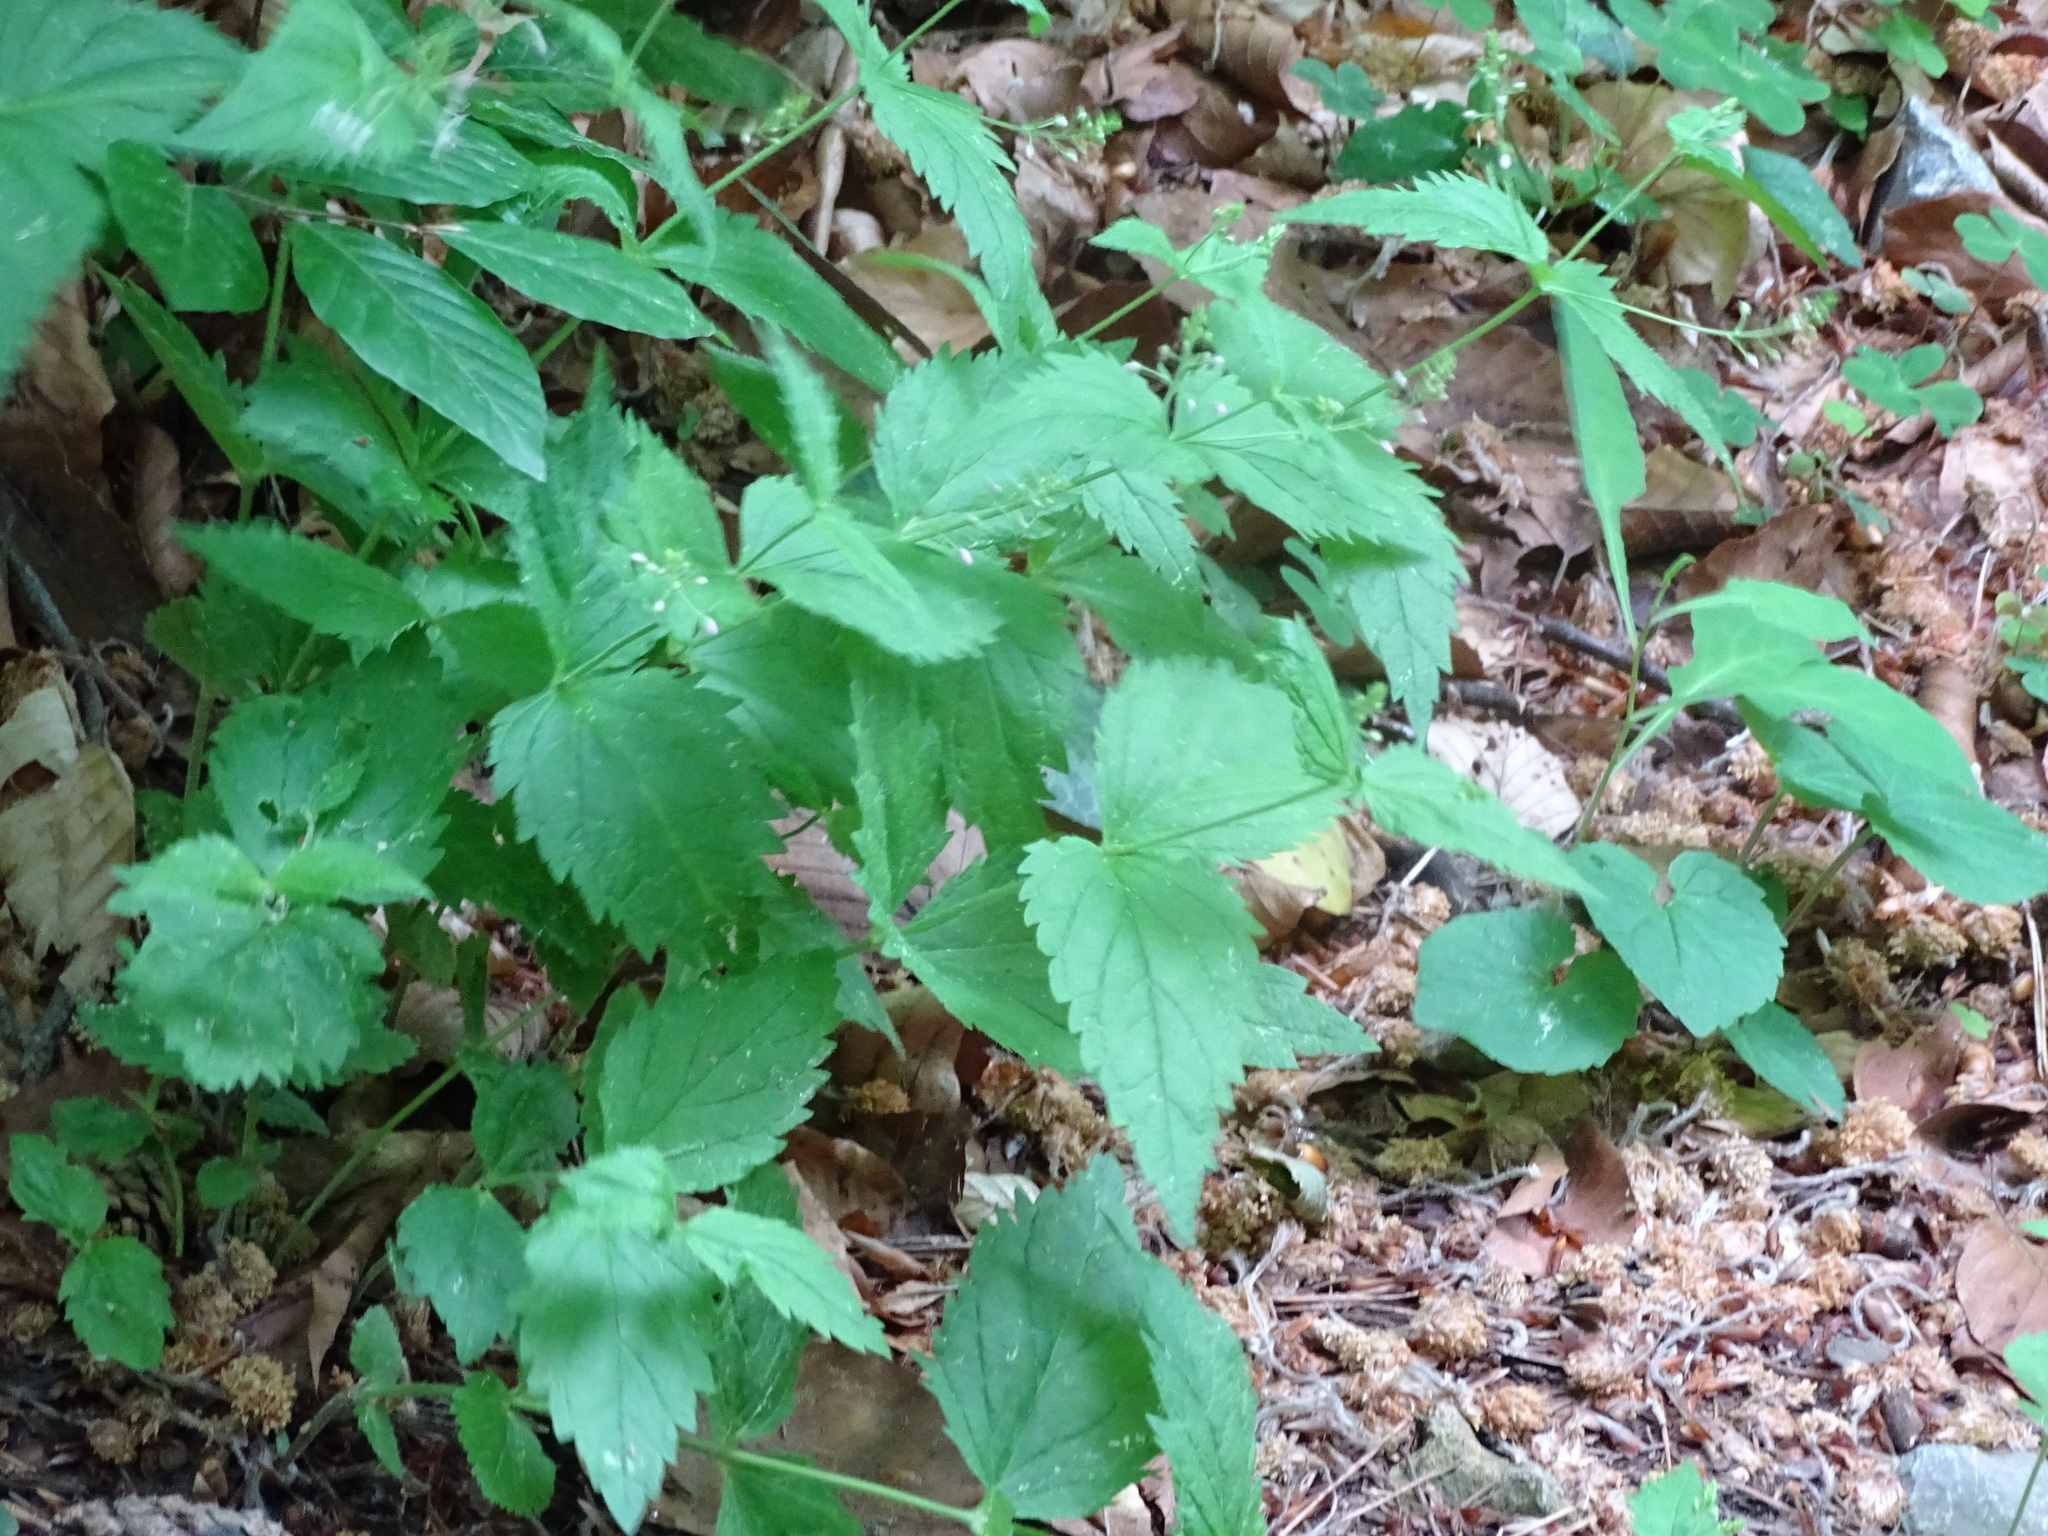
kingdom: Plantae
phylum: Tracheophyta
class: Magnoliopsida
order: Lamiales
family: Plantaginaceae
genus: Veronica
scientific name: Veronica urticifolia
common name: Nettle-leaf speedwell
